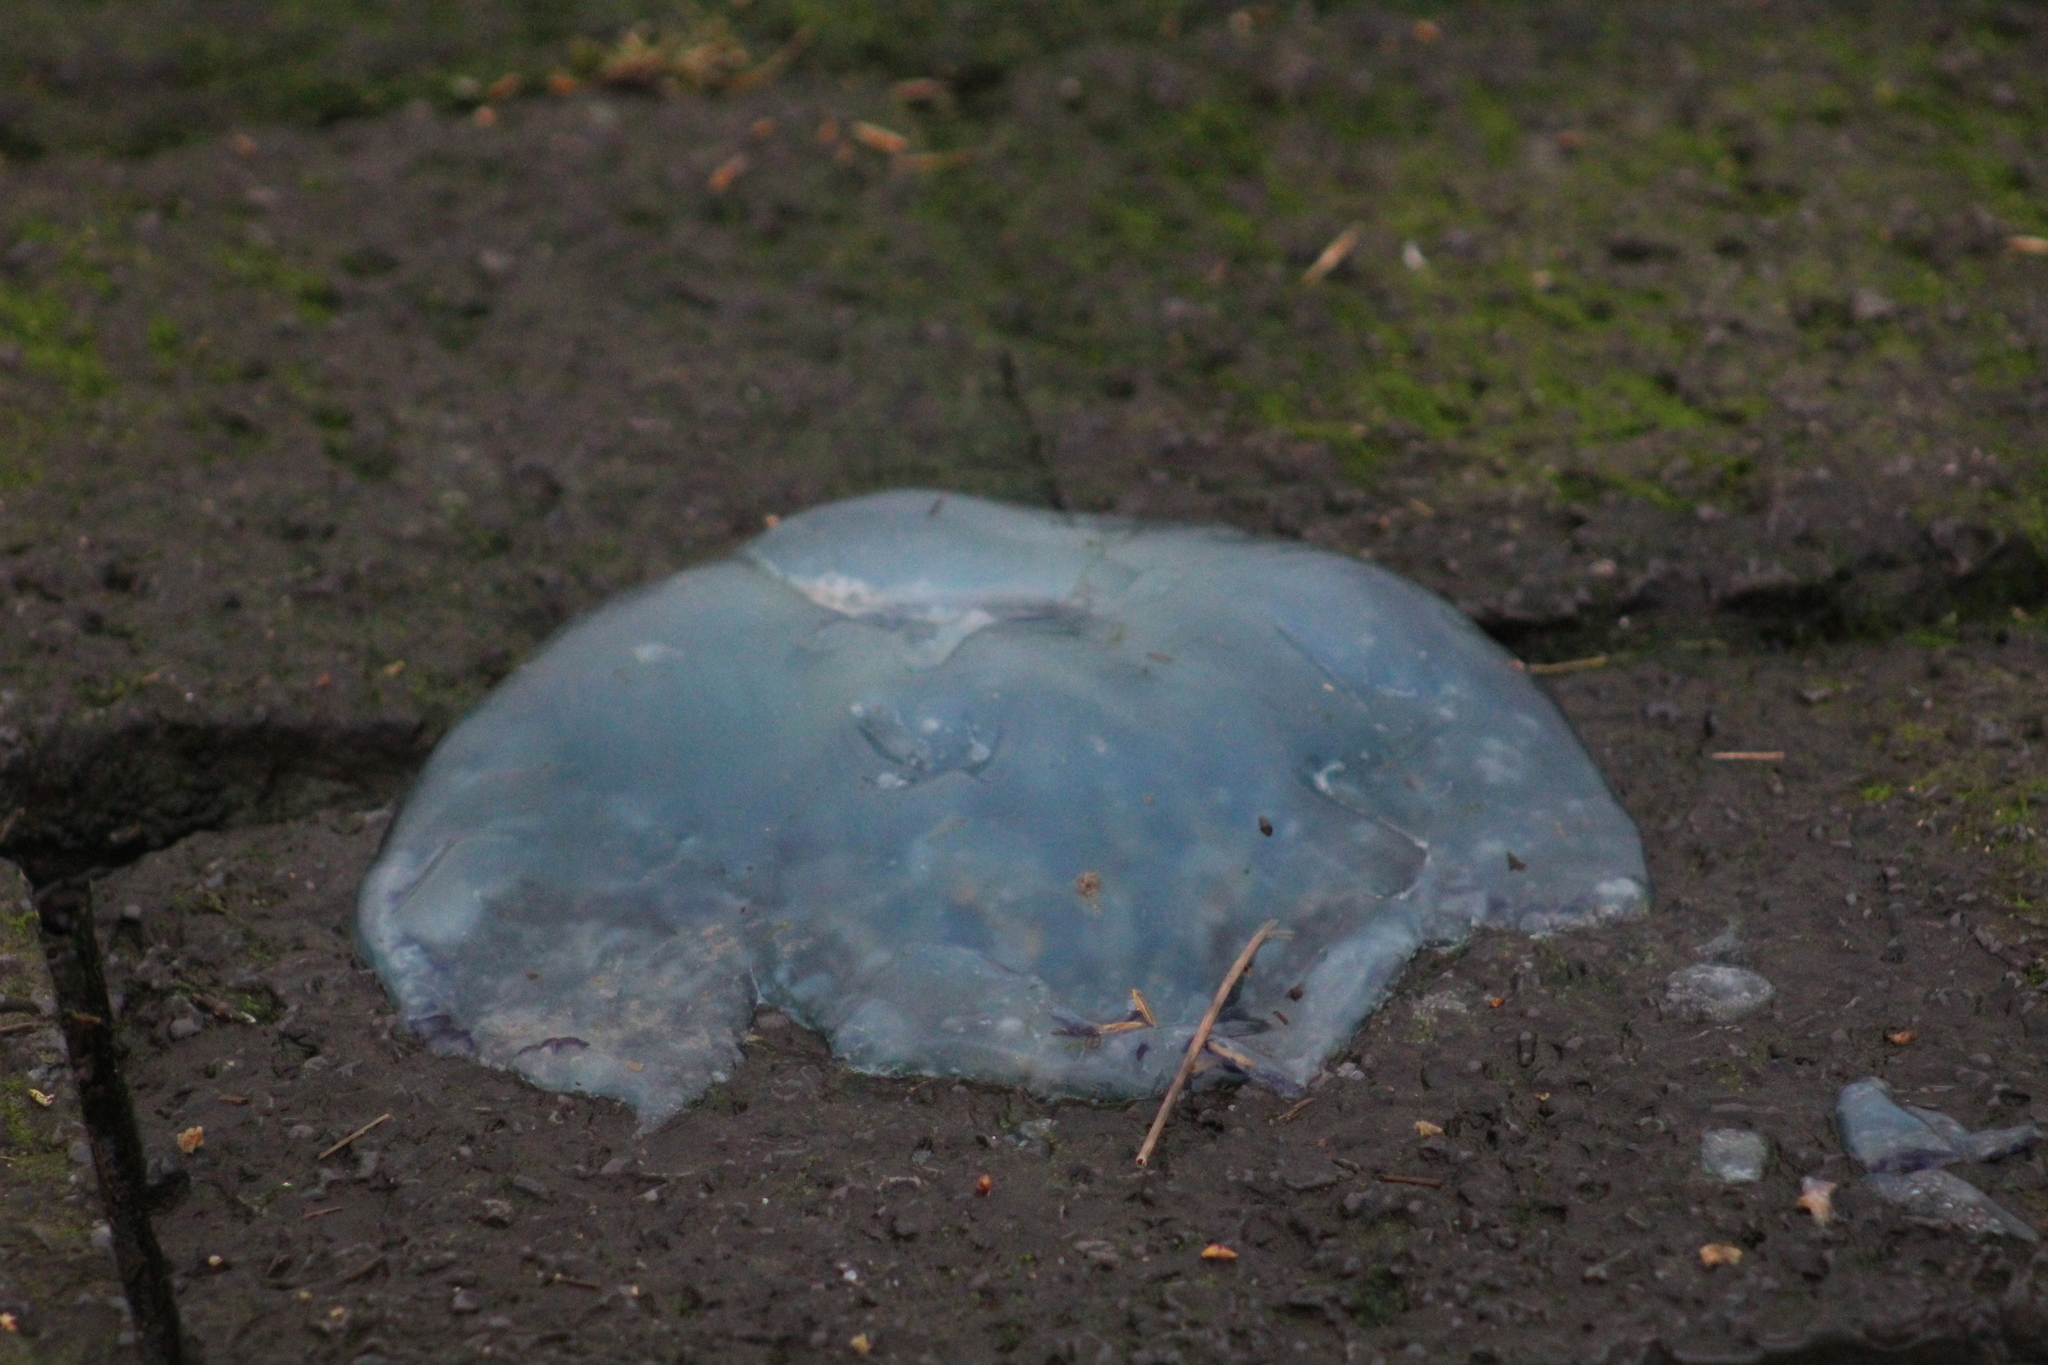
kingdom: Animalia
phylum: Cnidaria
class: Scyphozoa
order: Rhizostomeae
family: Rhizostomatidae
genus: Rhizostoma
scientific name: Rhizostoma octopus
